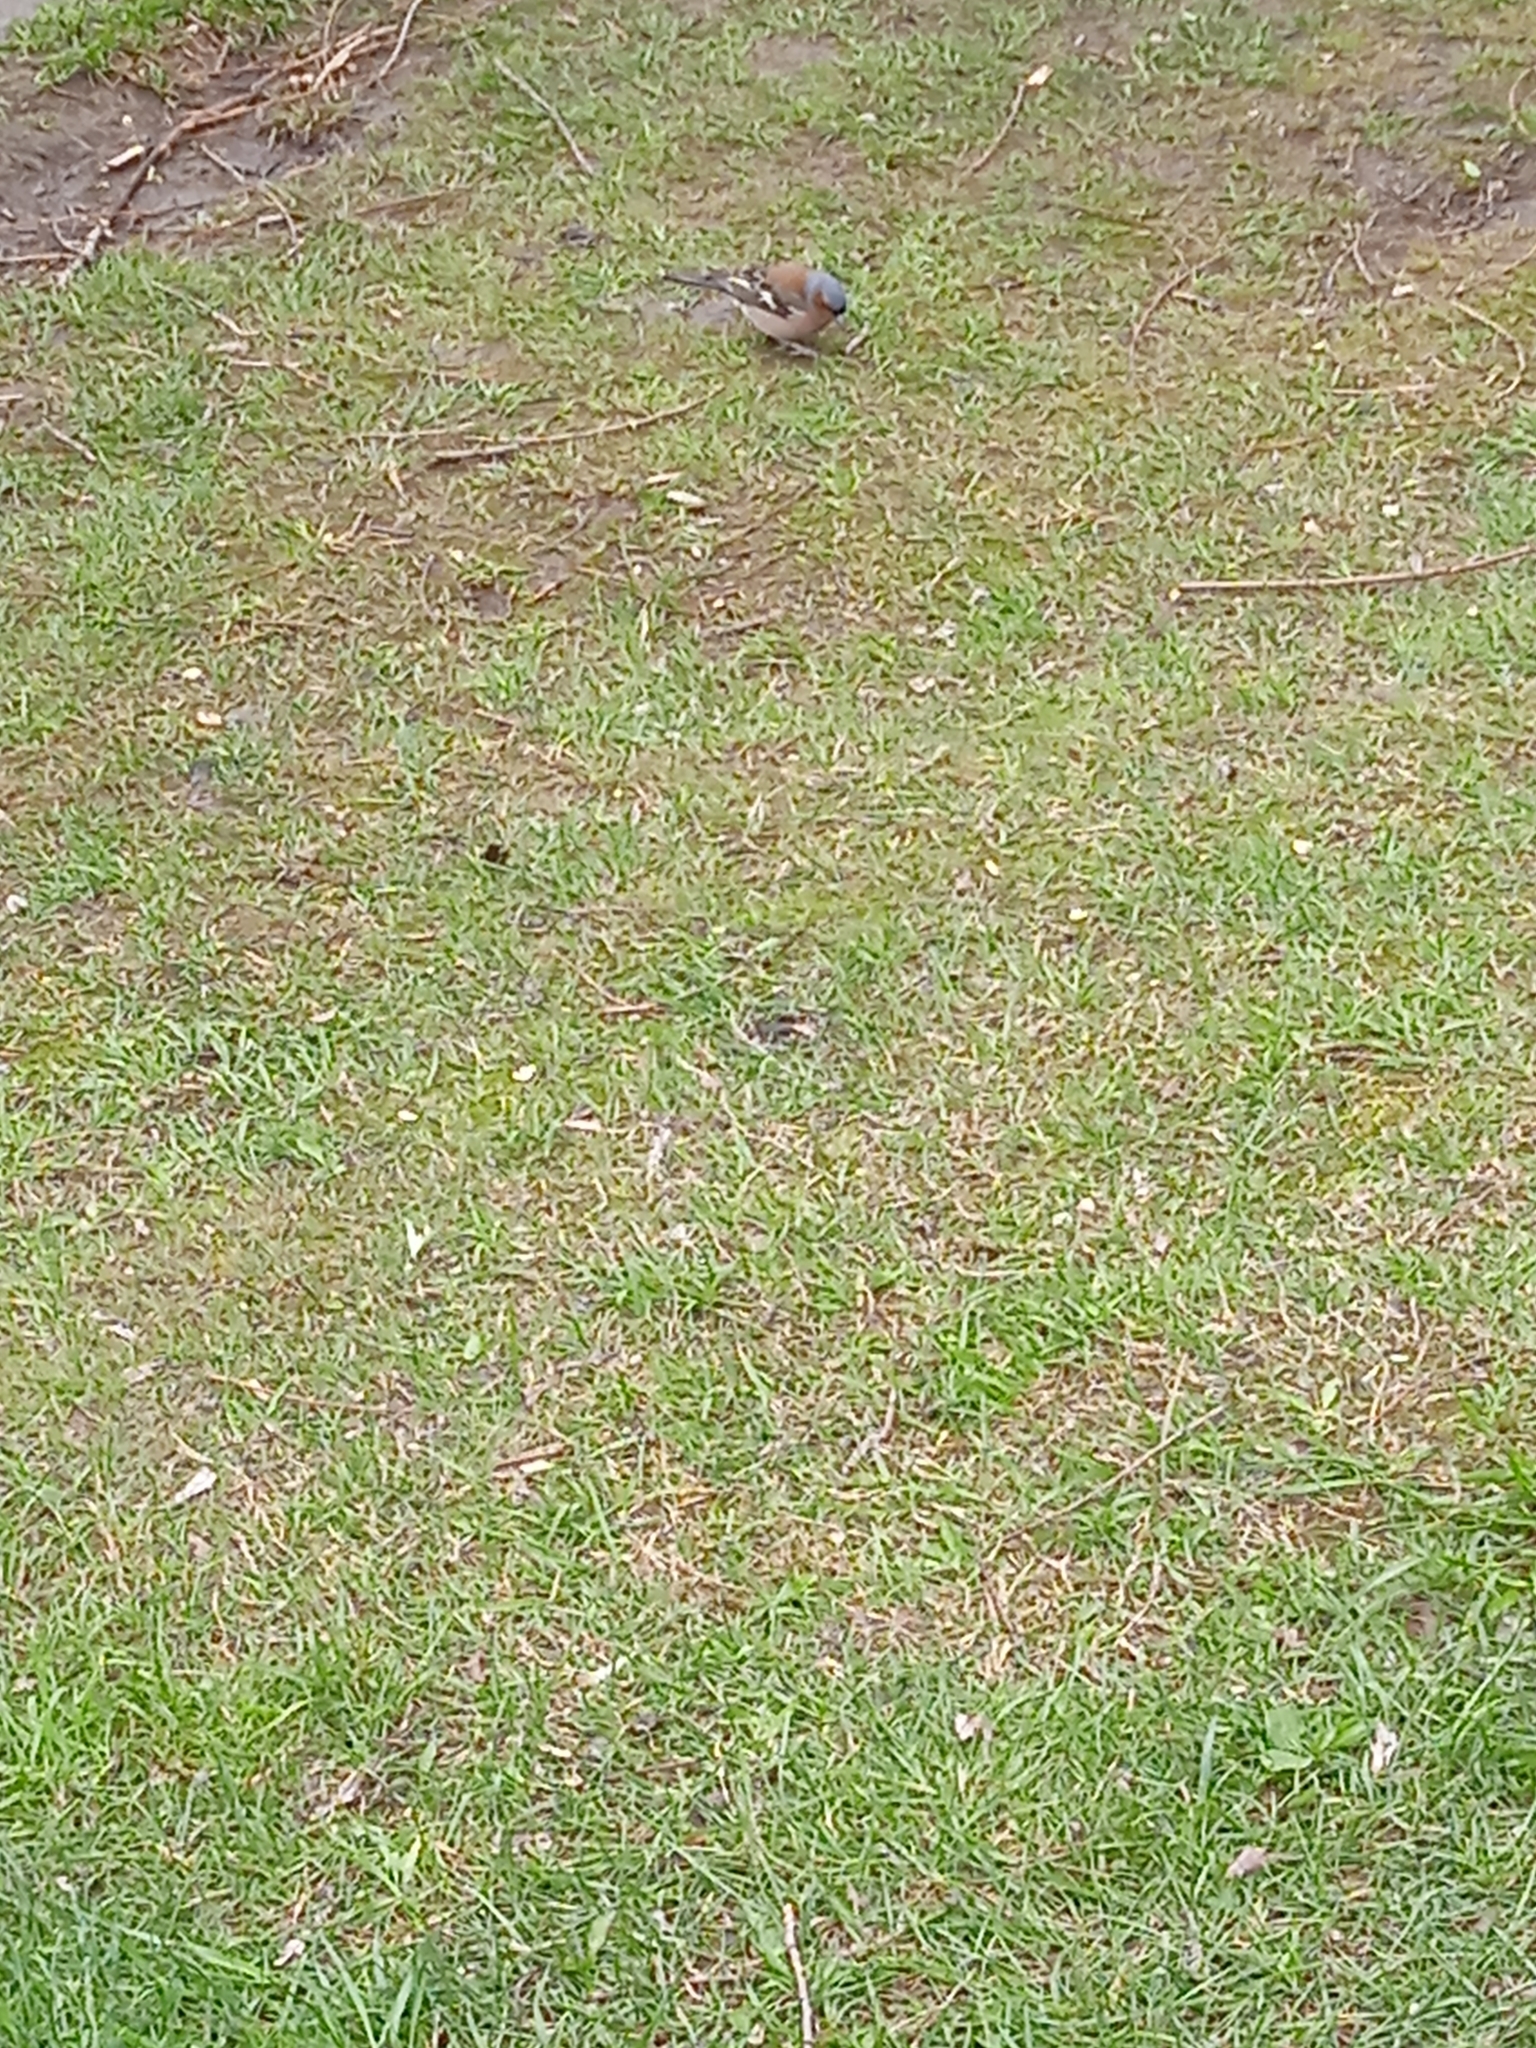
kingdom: Animalia
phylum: Chordata
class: Aves
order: Passeriformes
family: Fringillidae
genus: Fringilla
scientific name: Fringilla coelebs
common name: Common chaffinch
